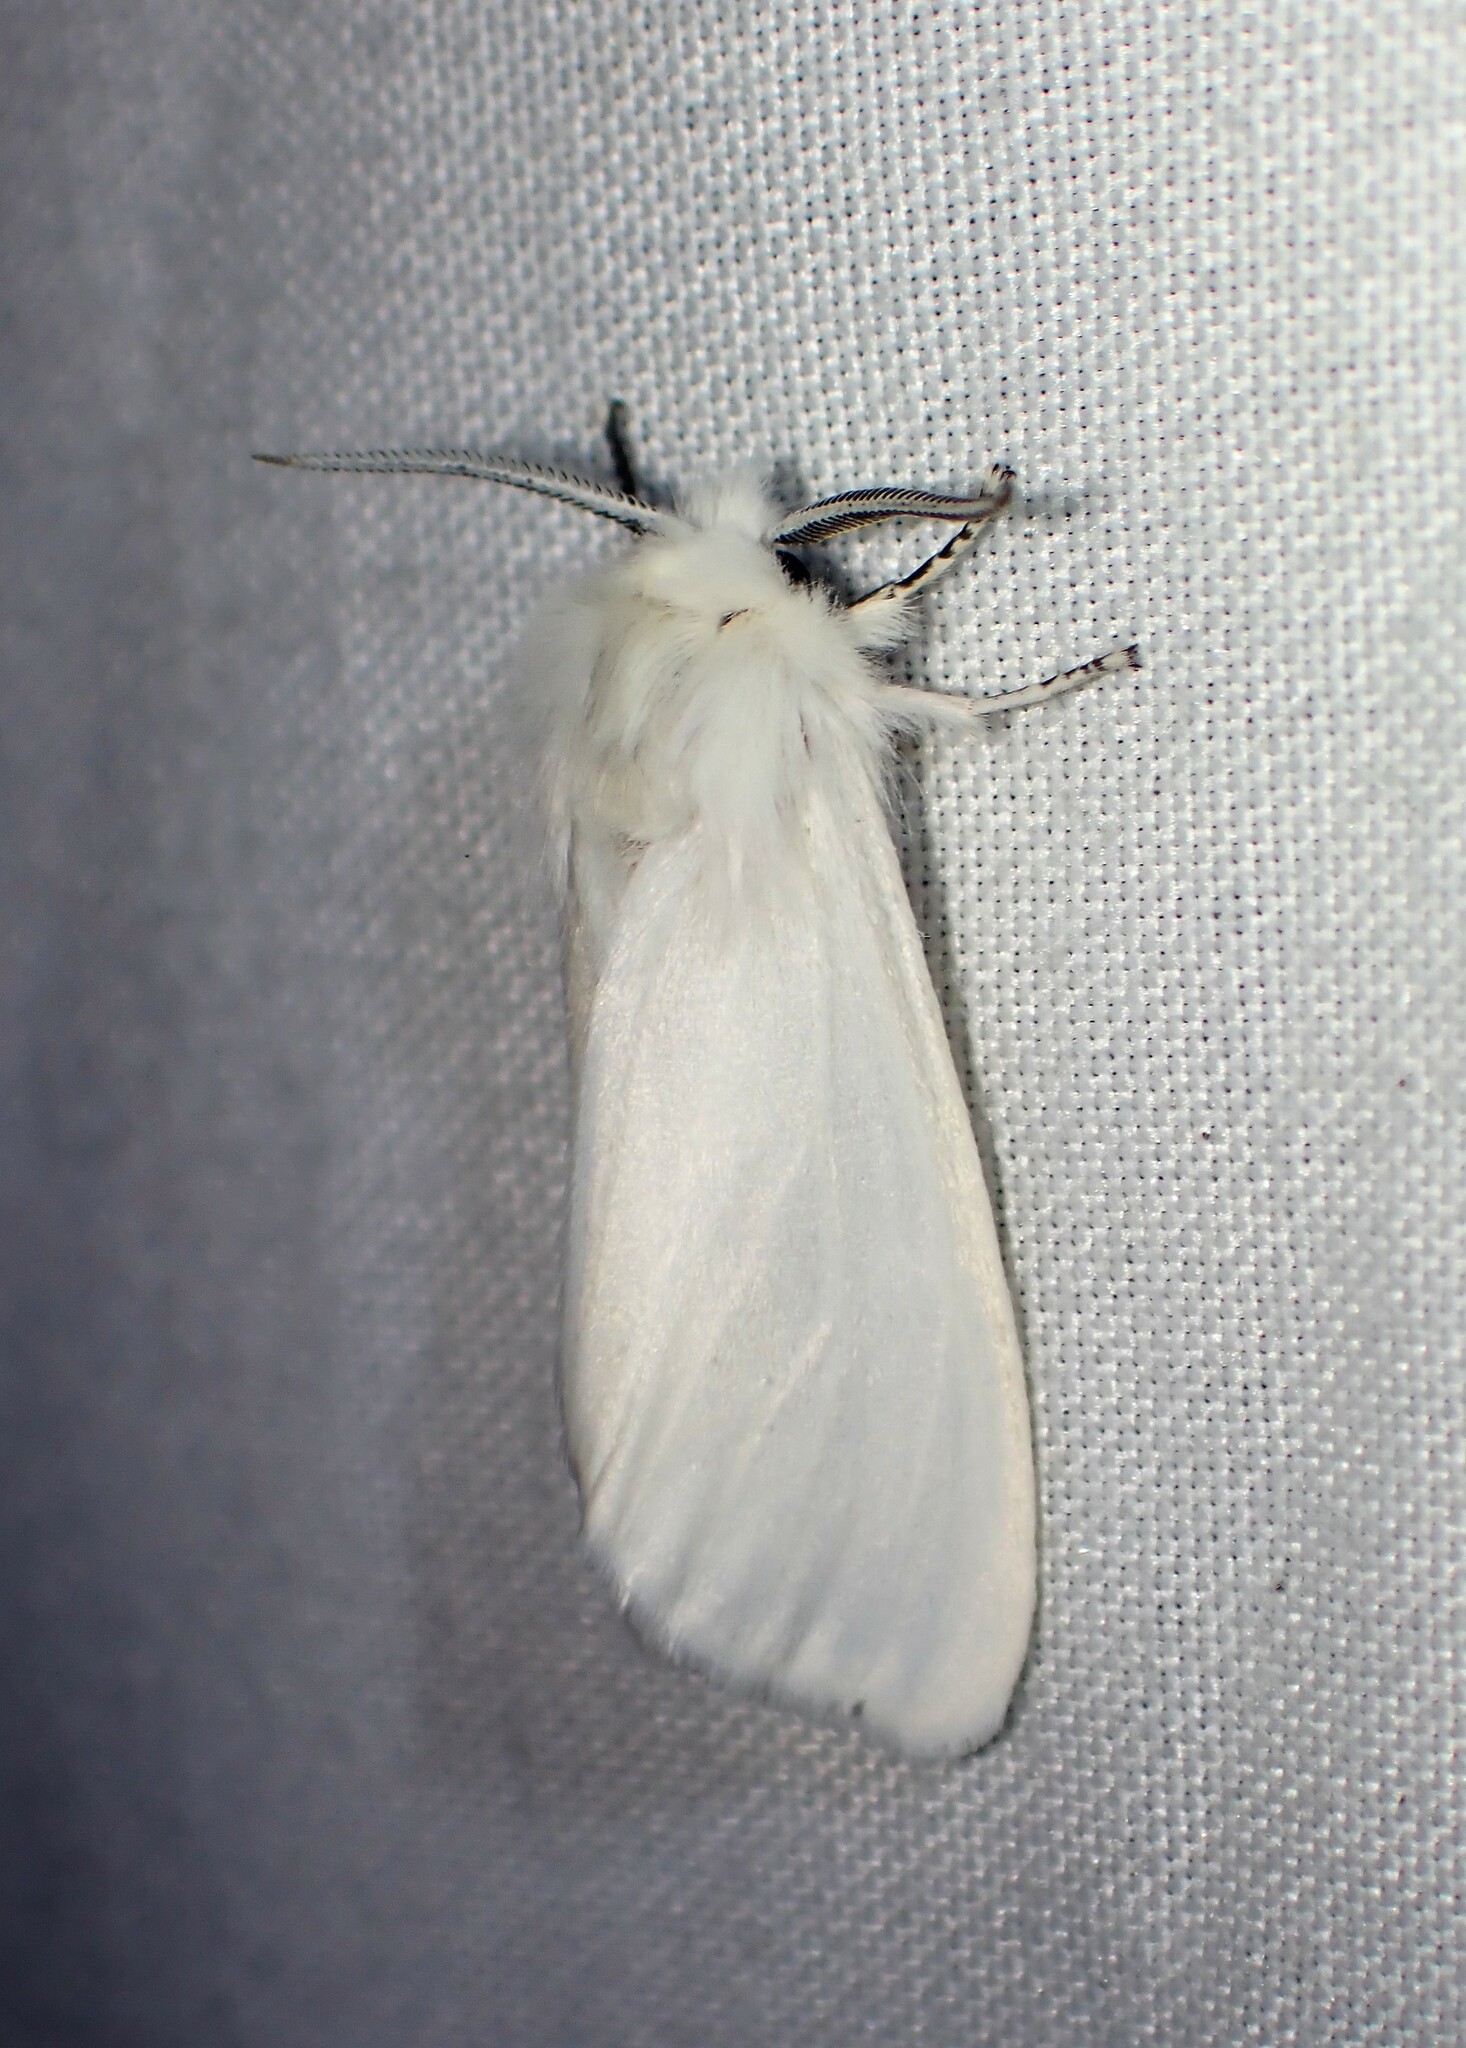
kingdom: Animalia
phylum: Arthropoda
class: Insecta
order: Lepidoptera
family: Erebidae
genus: Spilosoma
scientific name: Spilosoma virginica
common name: Virginia tiger moth
